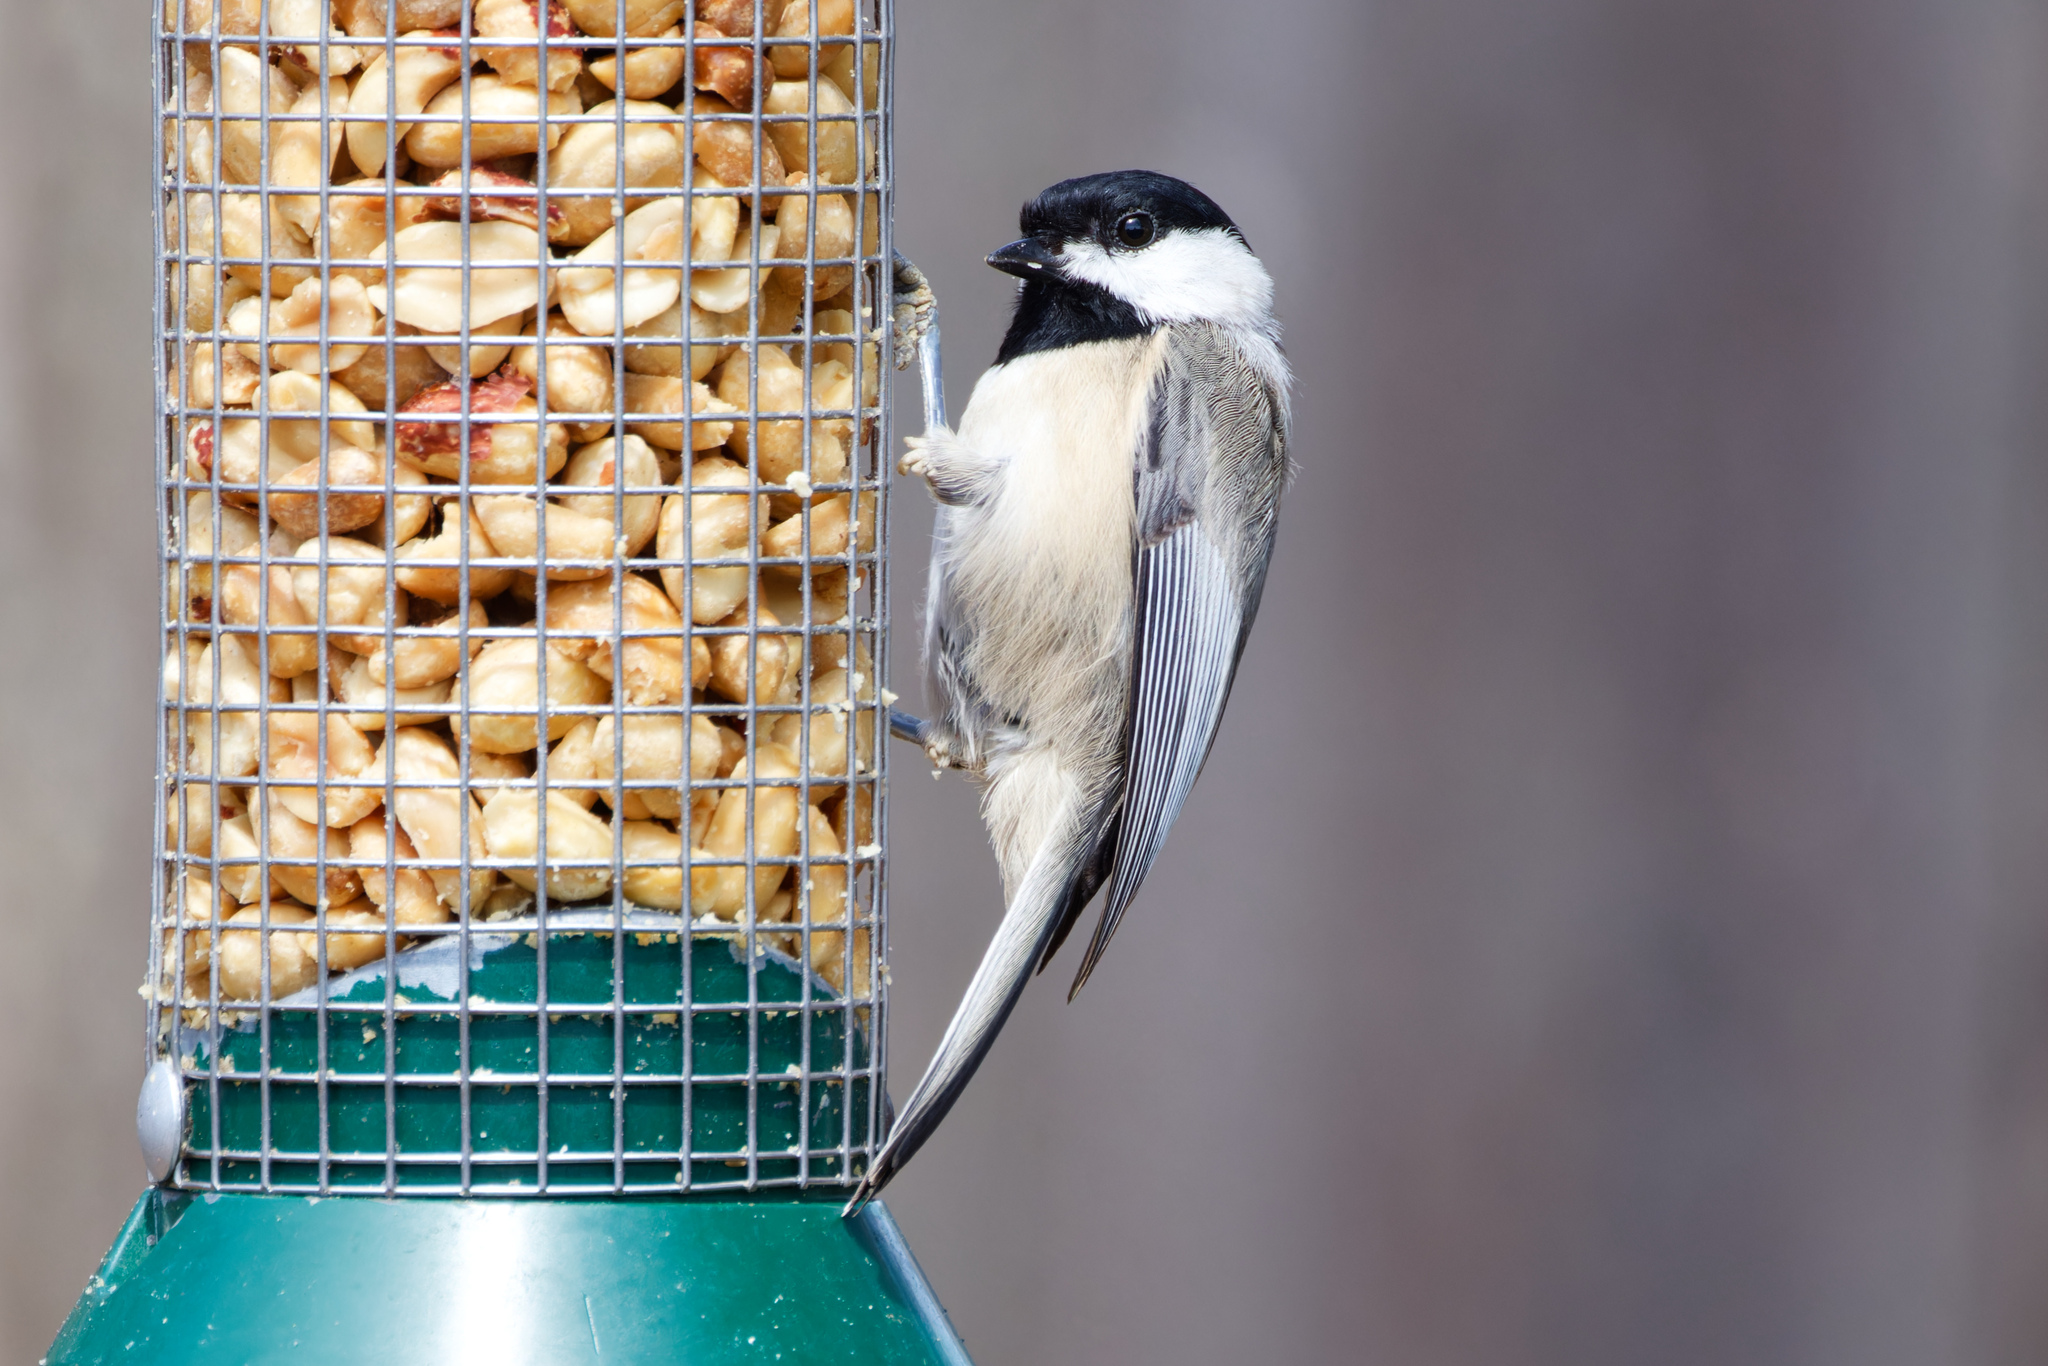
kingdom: Animalia
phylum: Chordata
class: Aves
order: Passeriformes
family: Paridae
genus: Poecile
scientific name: Poecile carolinensis
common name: Carolina chickadee
